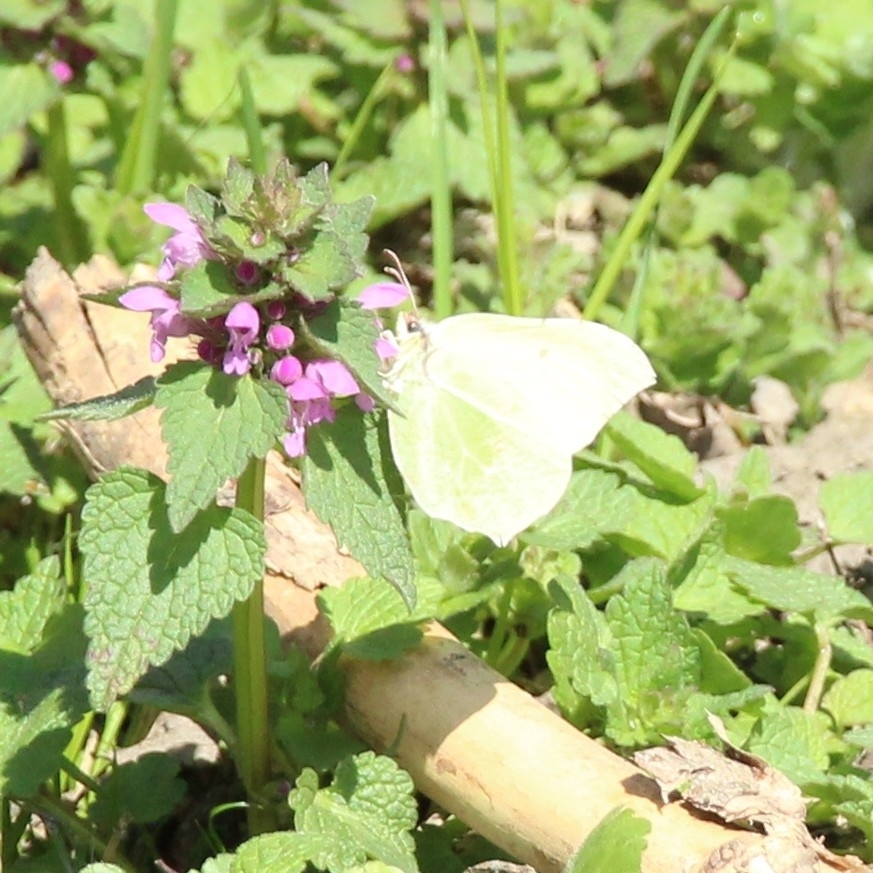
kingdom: Animalia
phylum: Arthropoda
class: Insecta
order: Lepidoptera
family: Pieridae
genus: Gonepteryx
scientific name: Gonepteryx rhamni
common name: Brimstone
